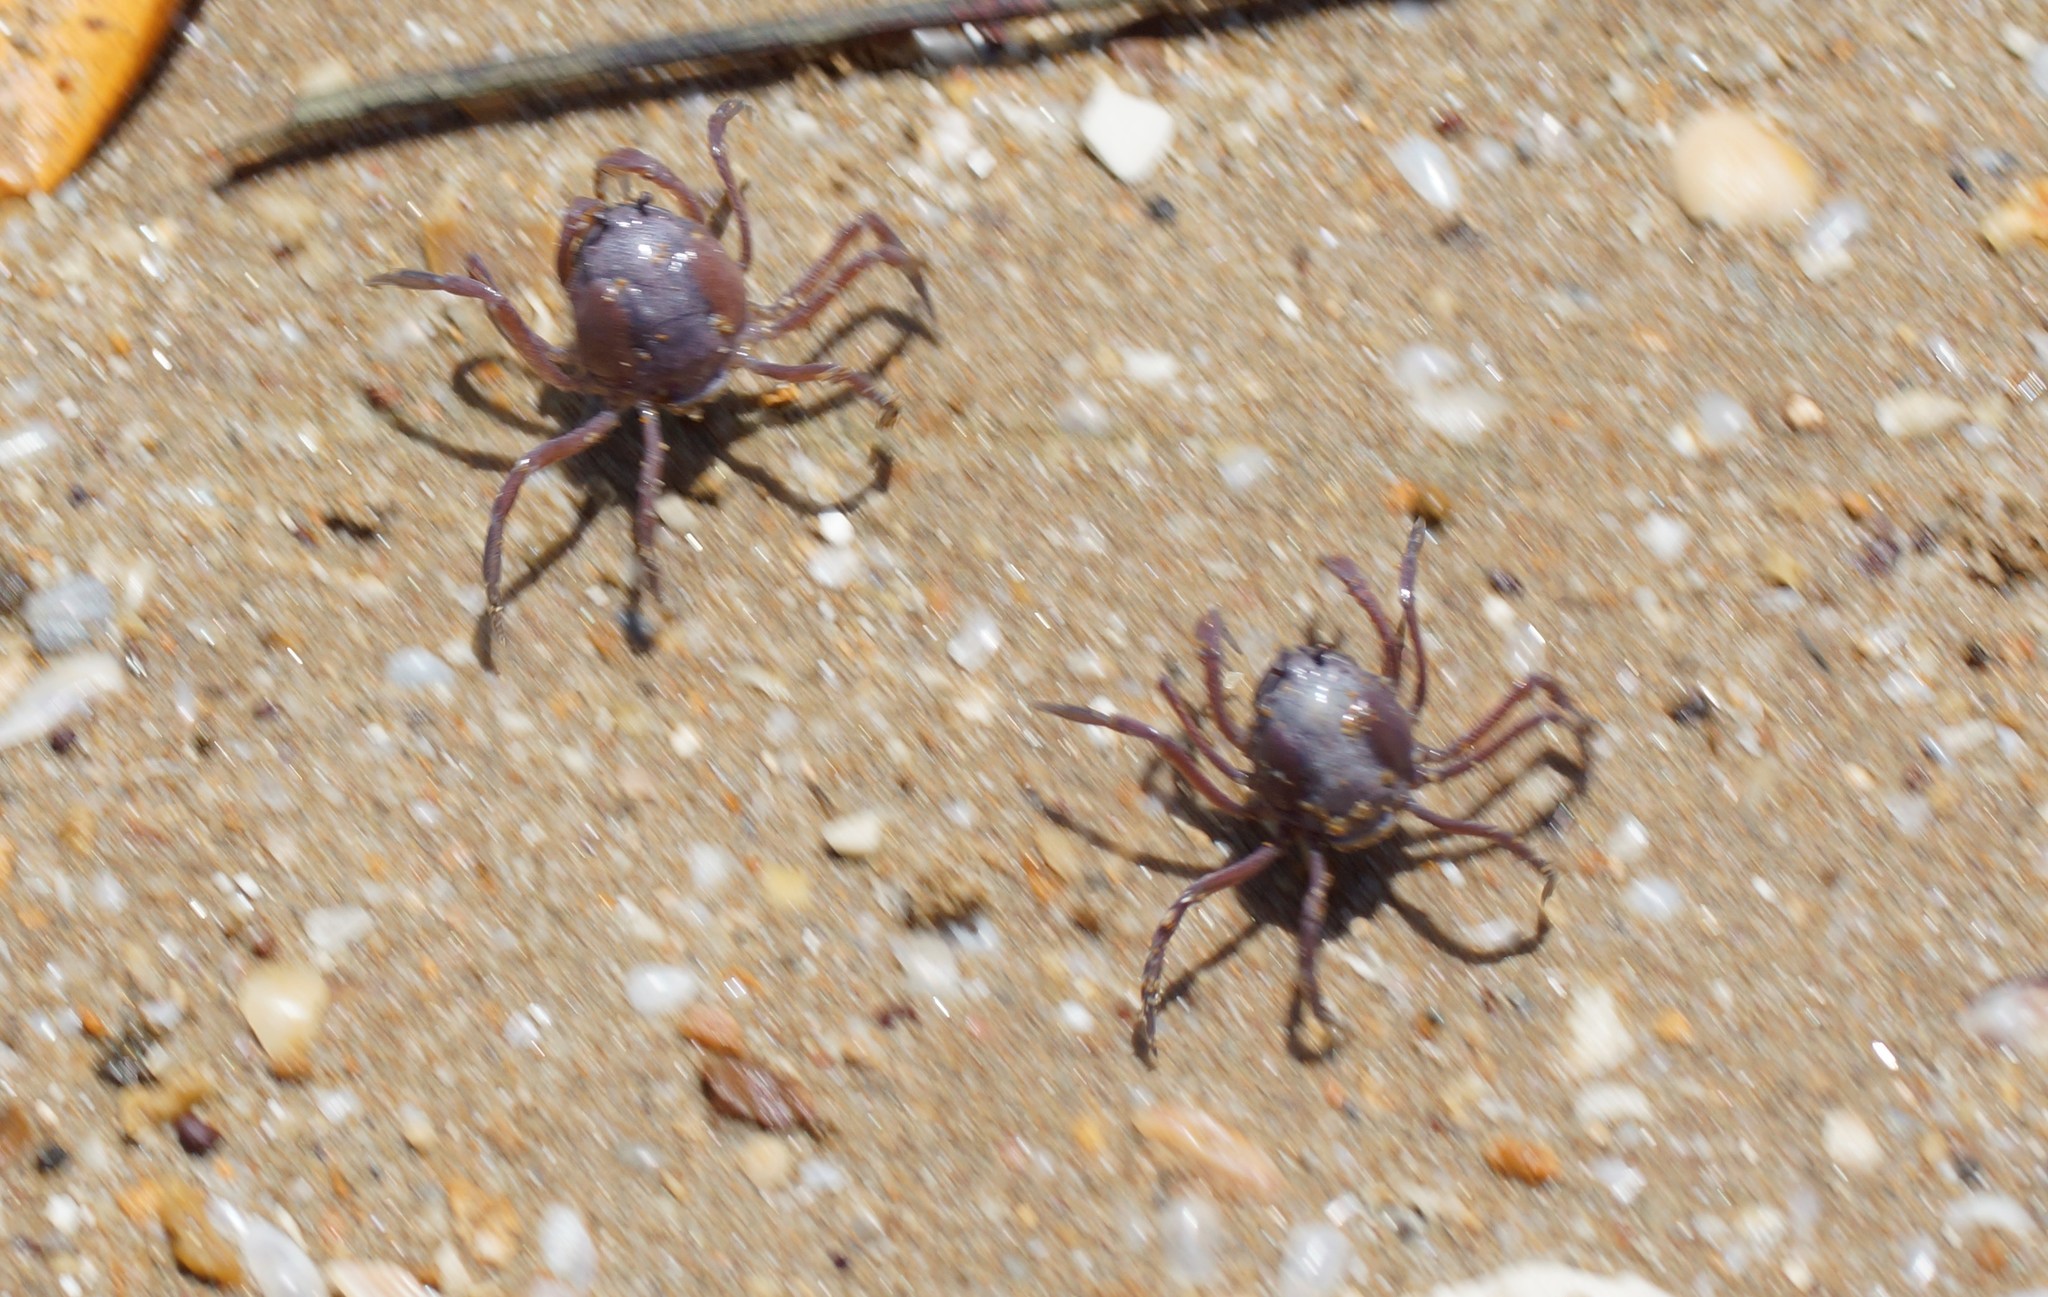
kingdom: Animalia
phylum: Arthropoda
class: Malacostraca
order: Decapoda
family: Mictyridae
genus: Mictyris
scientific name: Mictyris darwinensis
